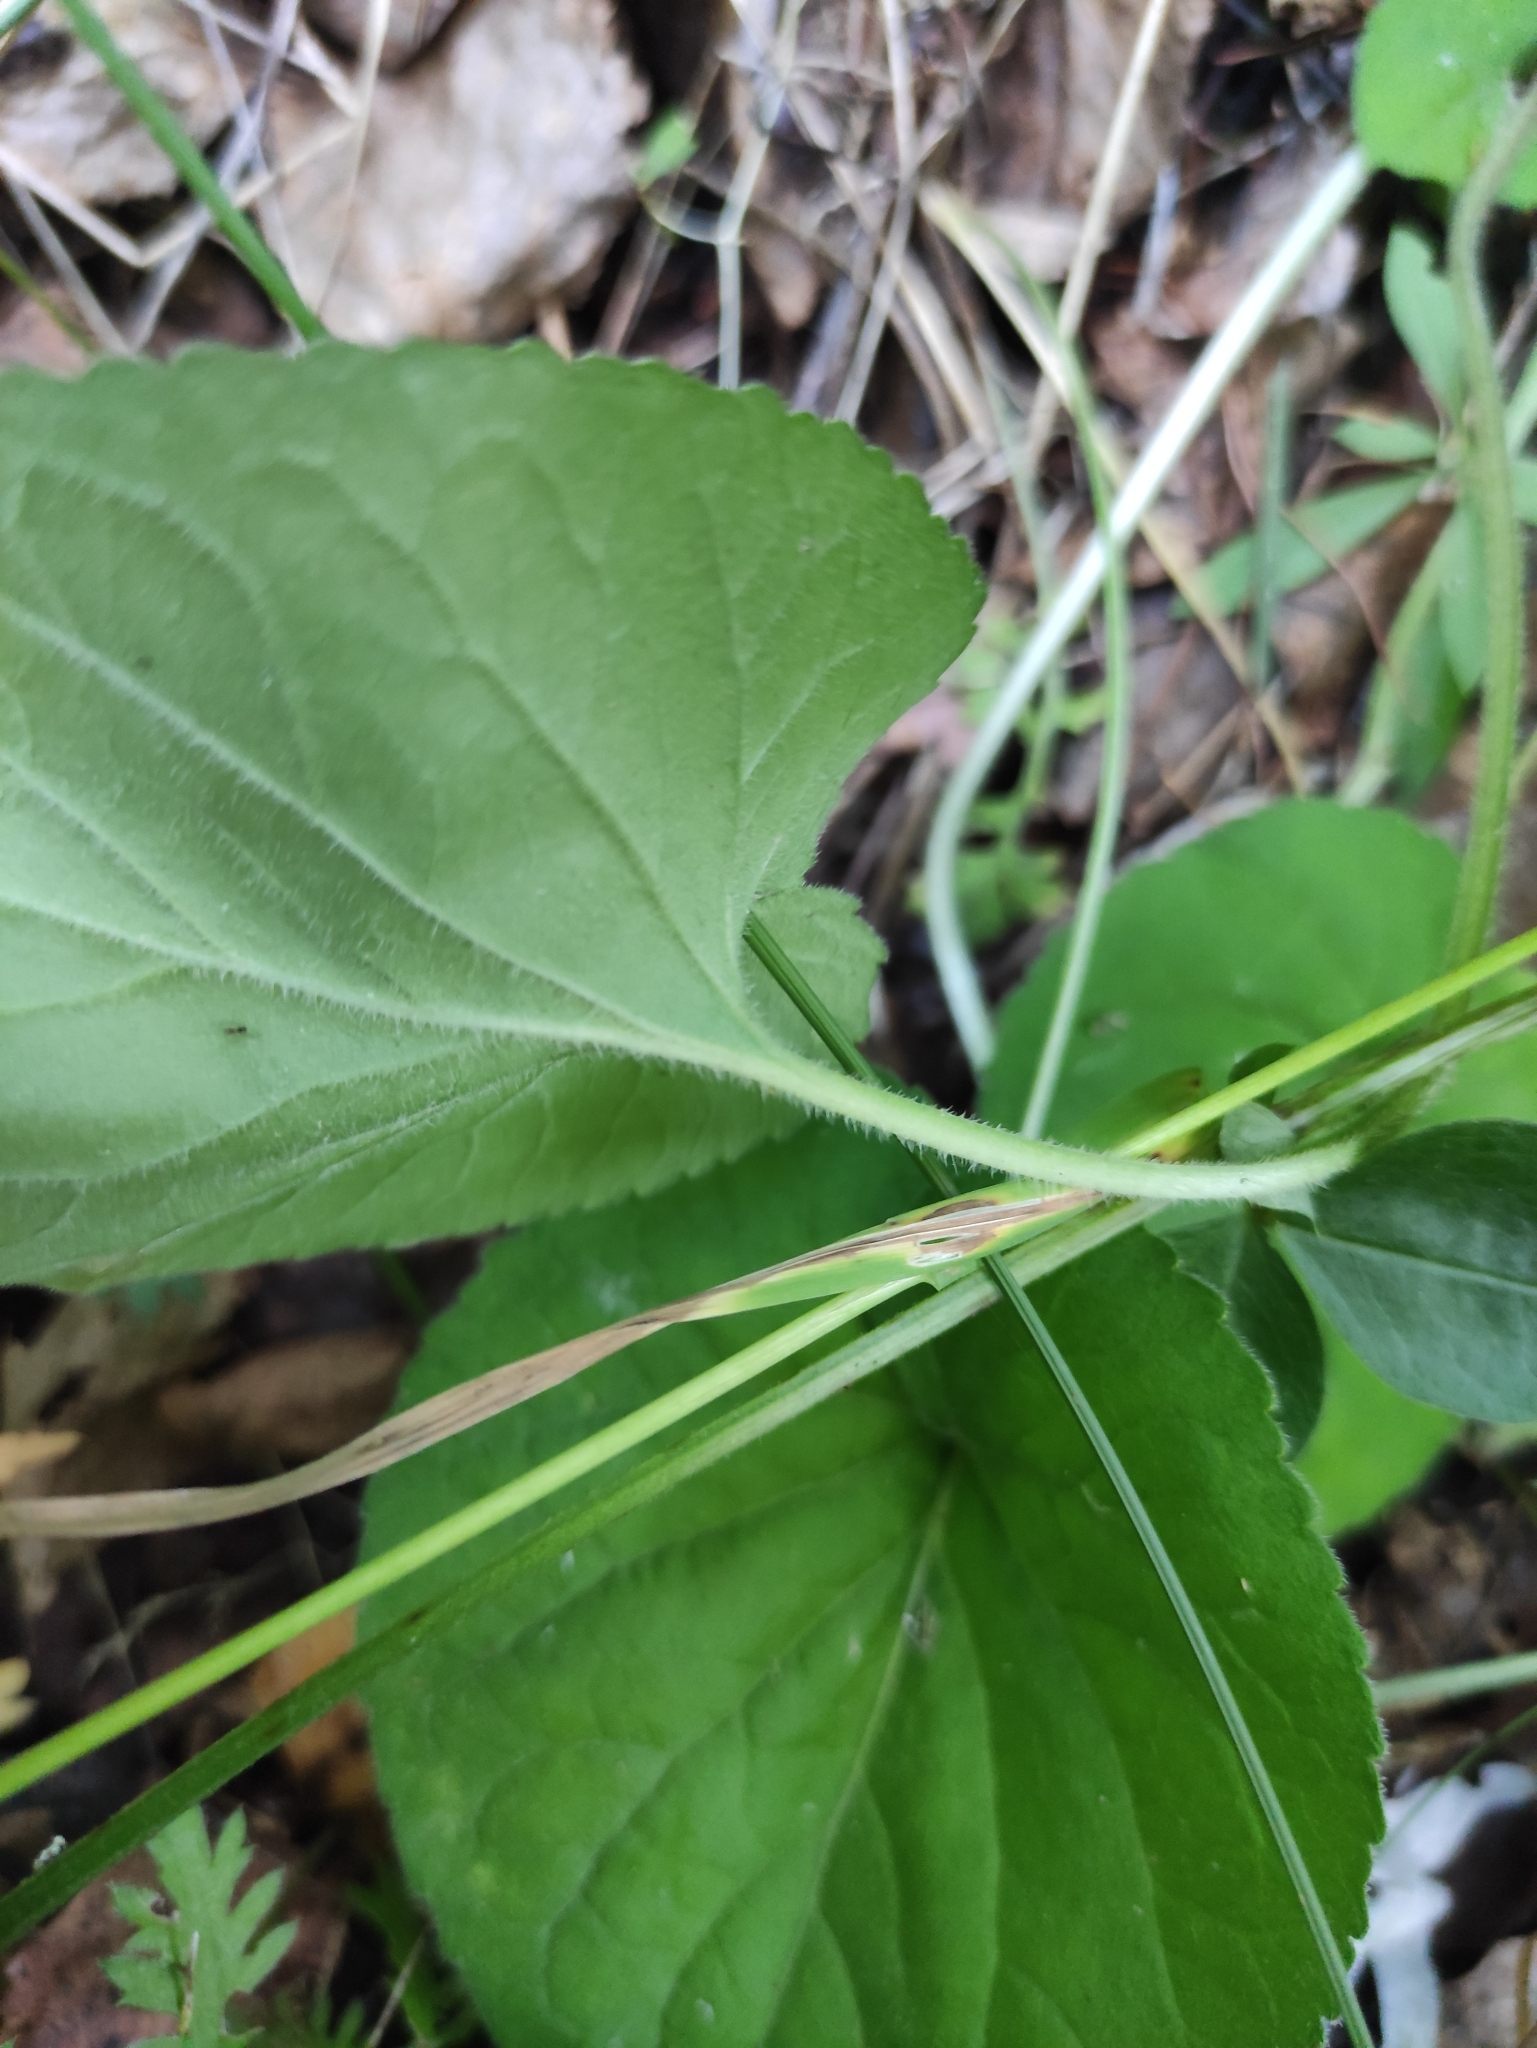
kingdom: Plantae
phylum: Tracheophyta
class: Magnoliopsida
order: Malpighiales
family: Violaceae
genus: Viola
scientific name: Viola selkirkii
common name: Selkirk's violet
